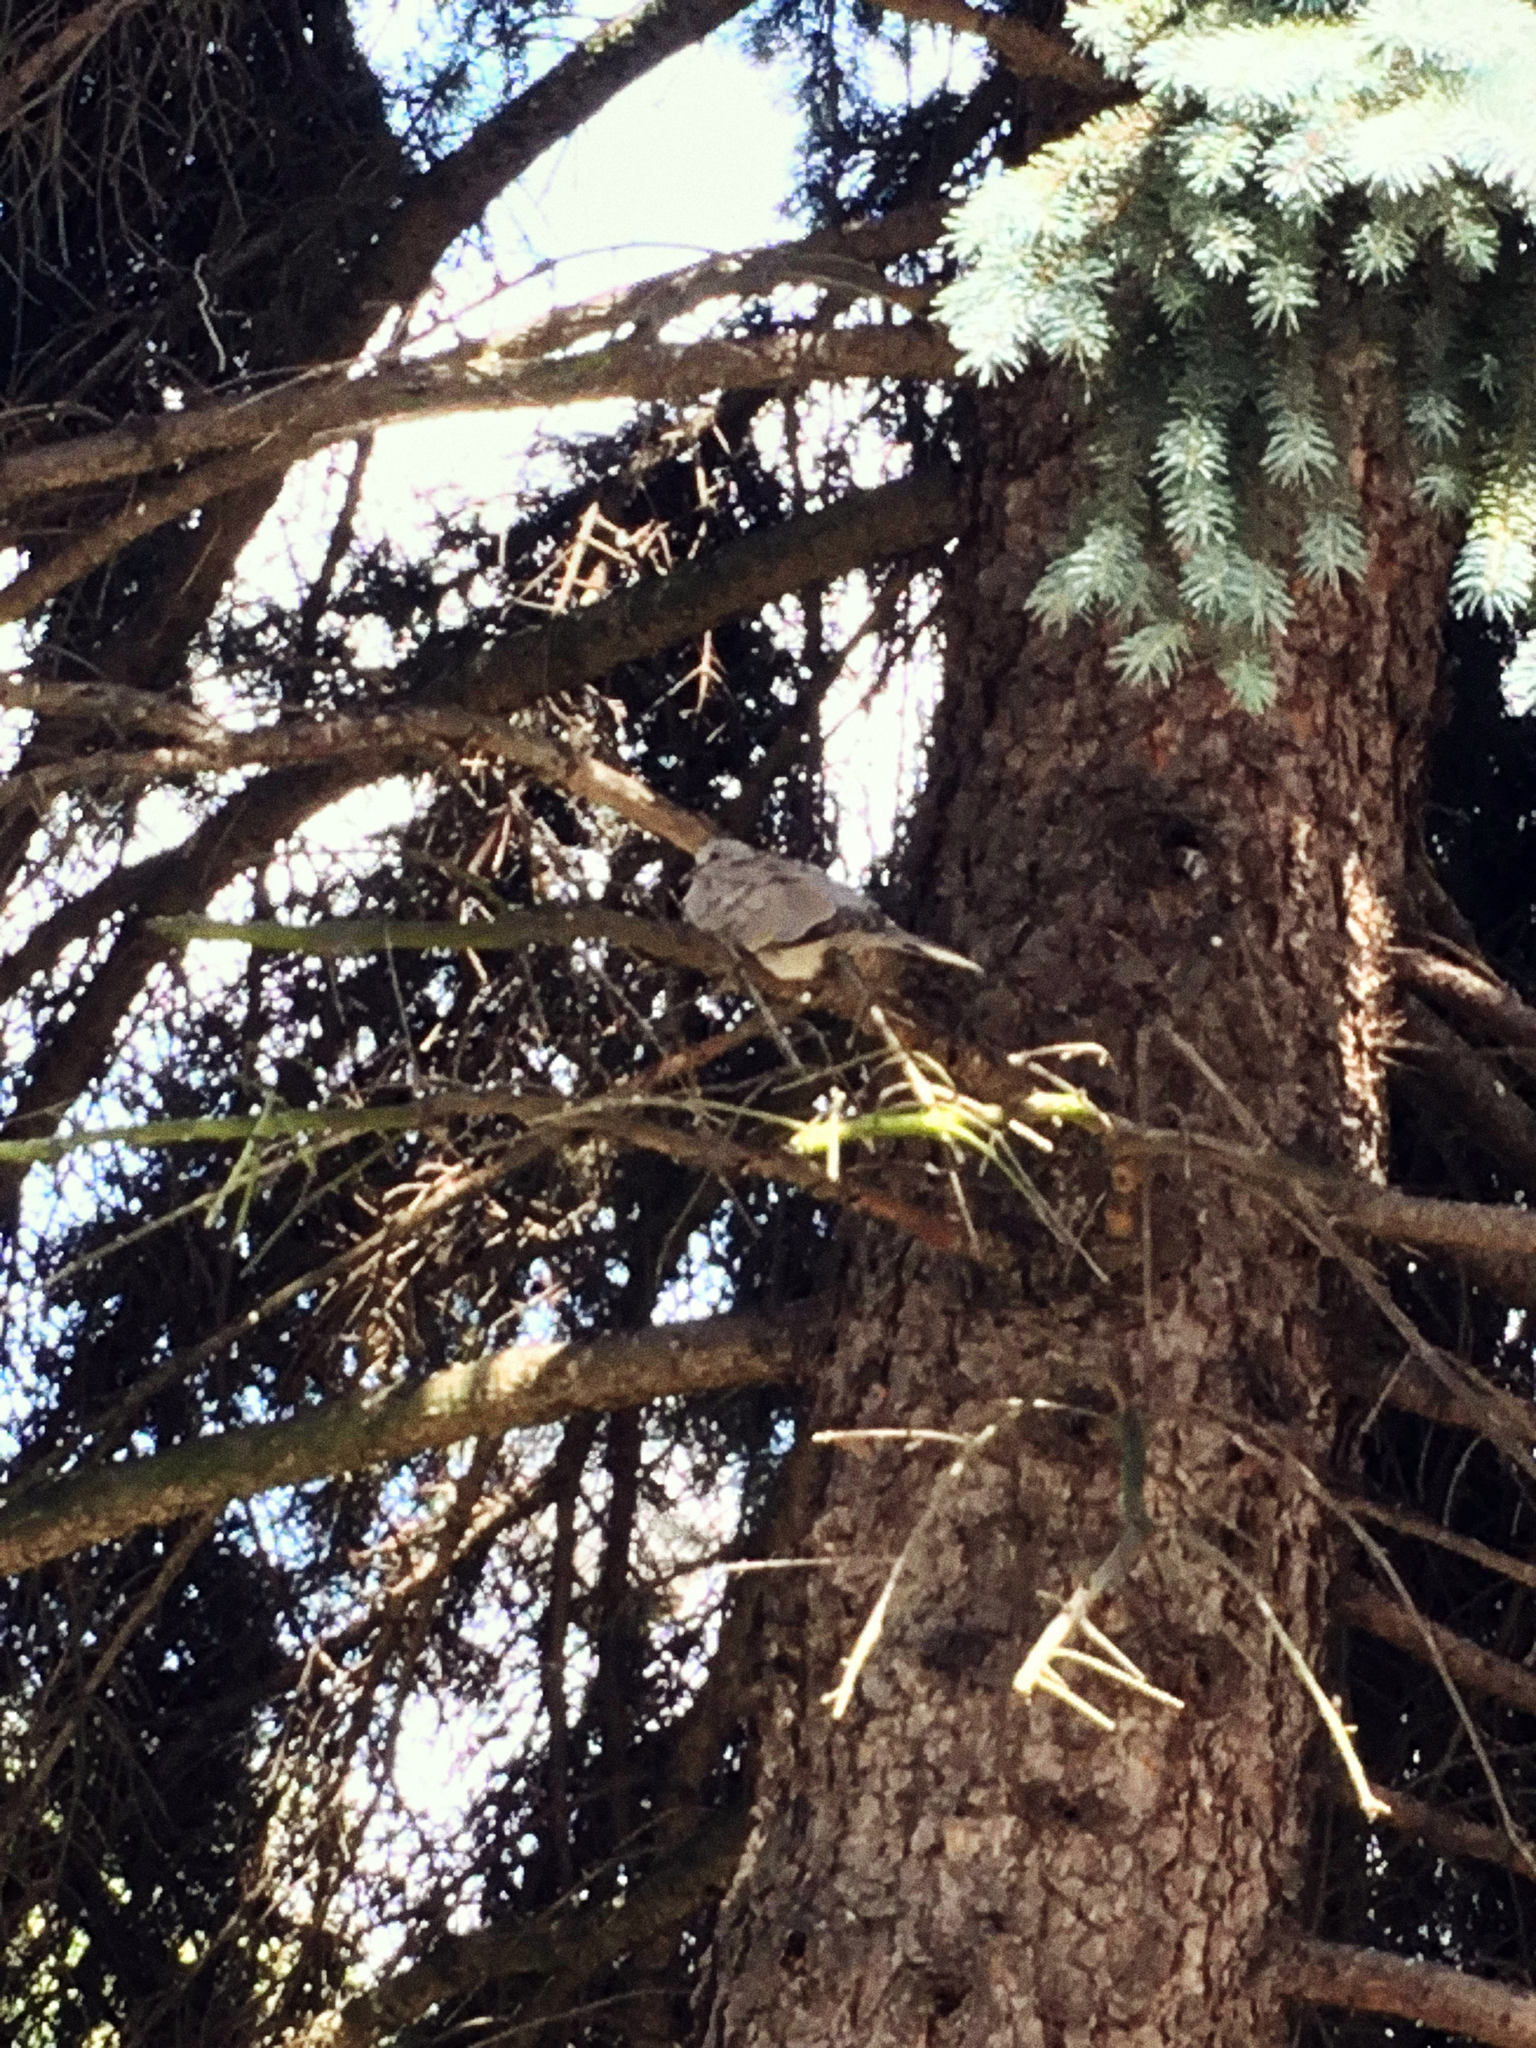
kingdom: Animalia
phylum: Chordata
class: Aves
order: Columbiformes
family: Columbidae
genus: Streptopelia
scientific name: Streptopelia decaocto
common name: Eurasian collared dove
